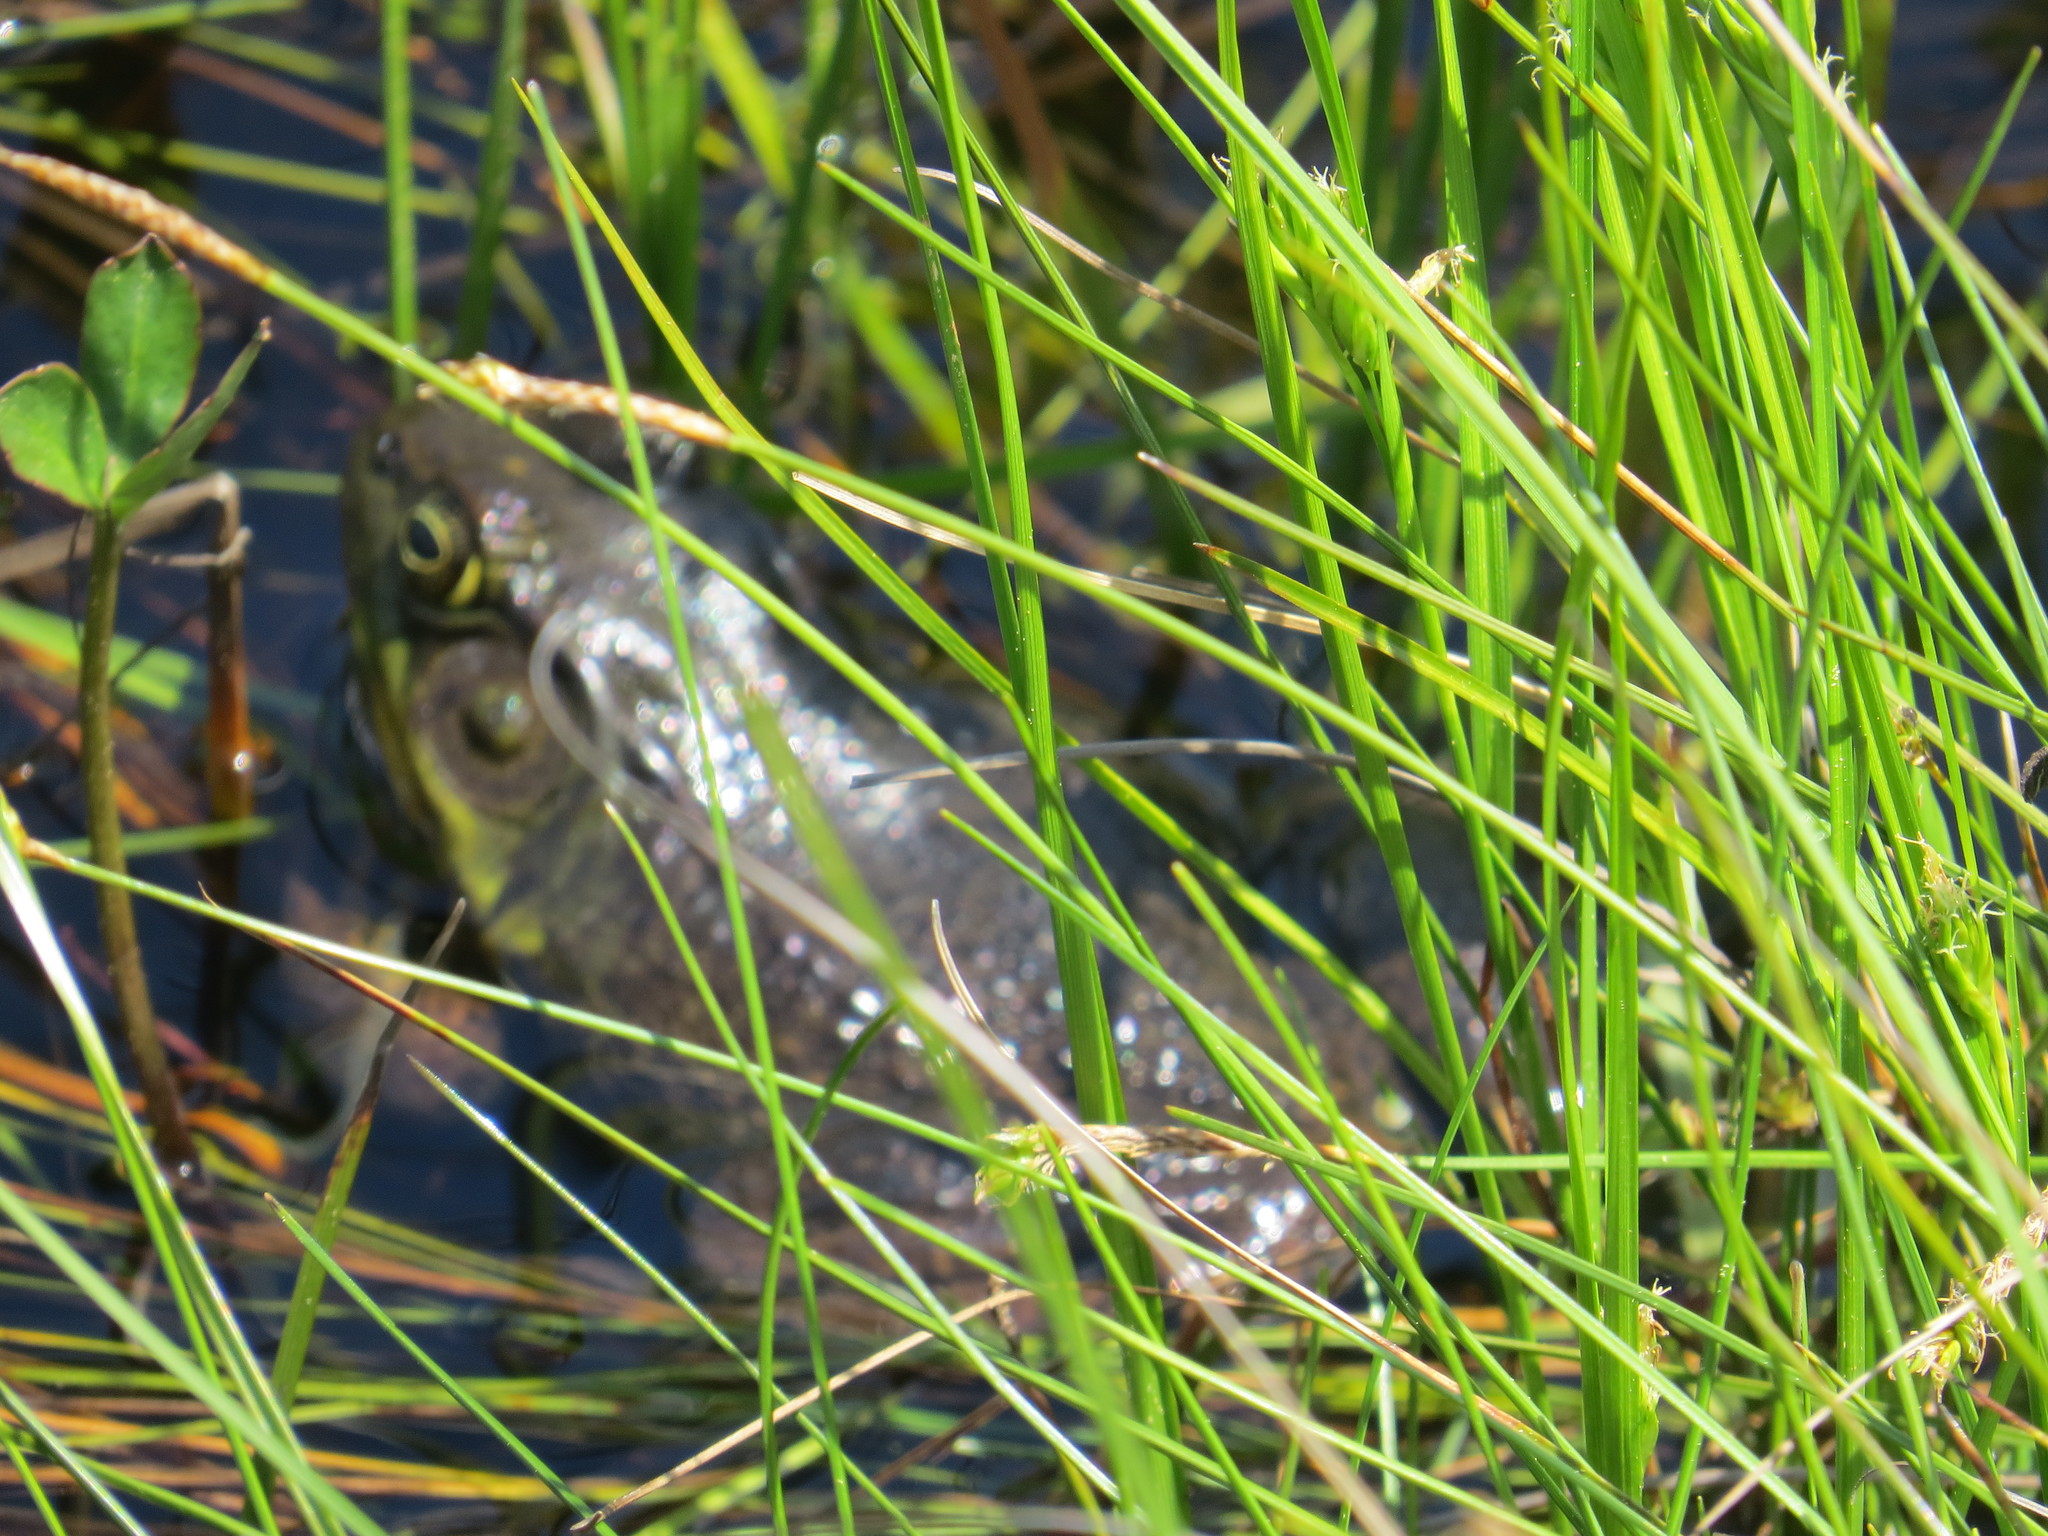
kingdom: Animalia
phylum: Chordata
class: Amphibia
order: Anura
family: Ranidae
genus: Lithobates
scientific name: Lithobates clamitans
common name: Green frog
